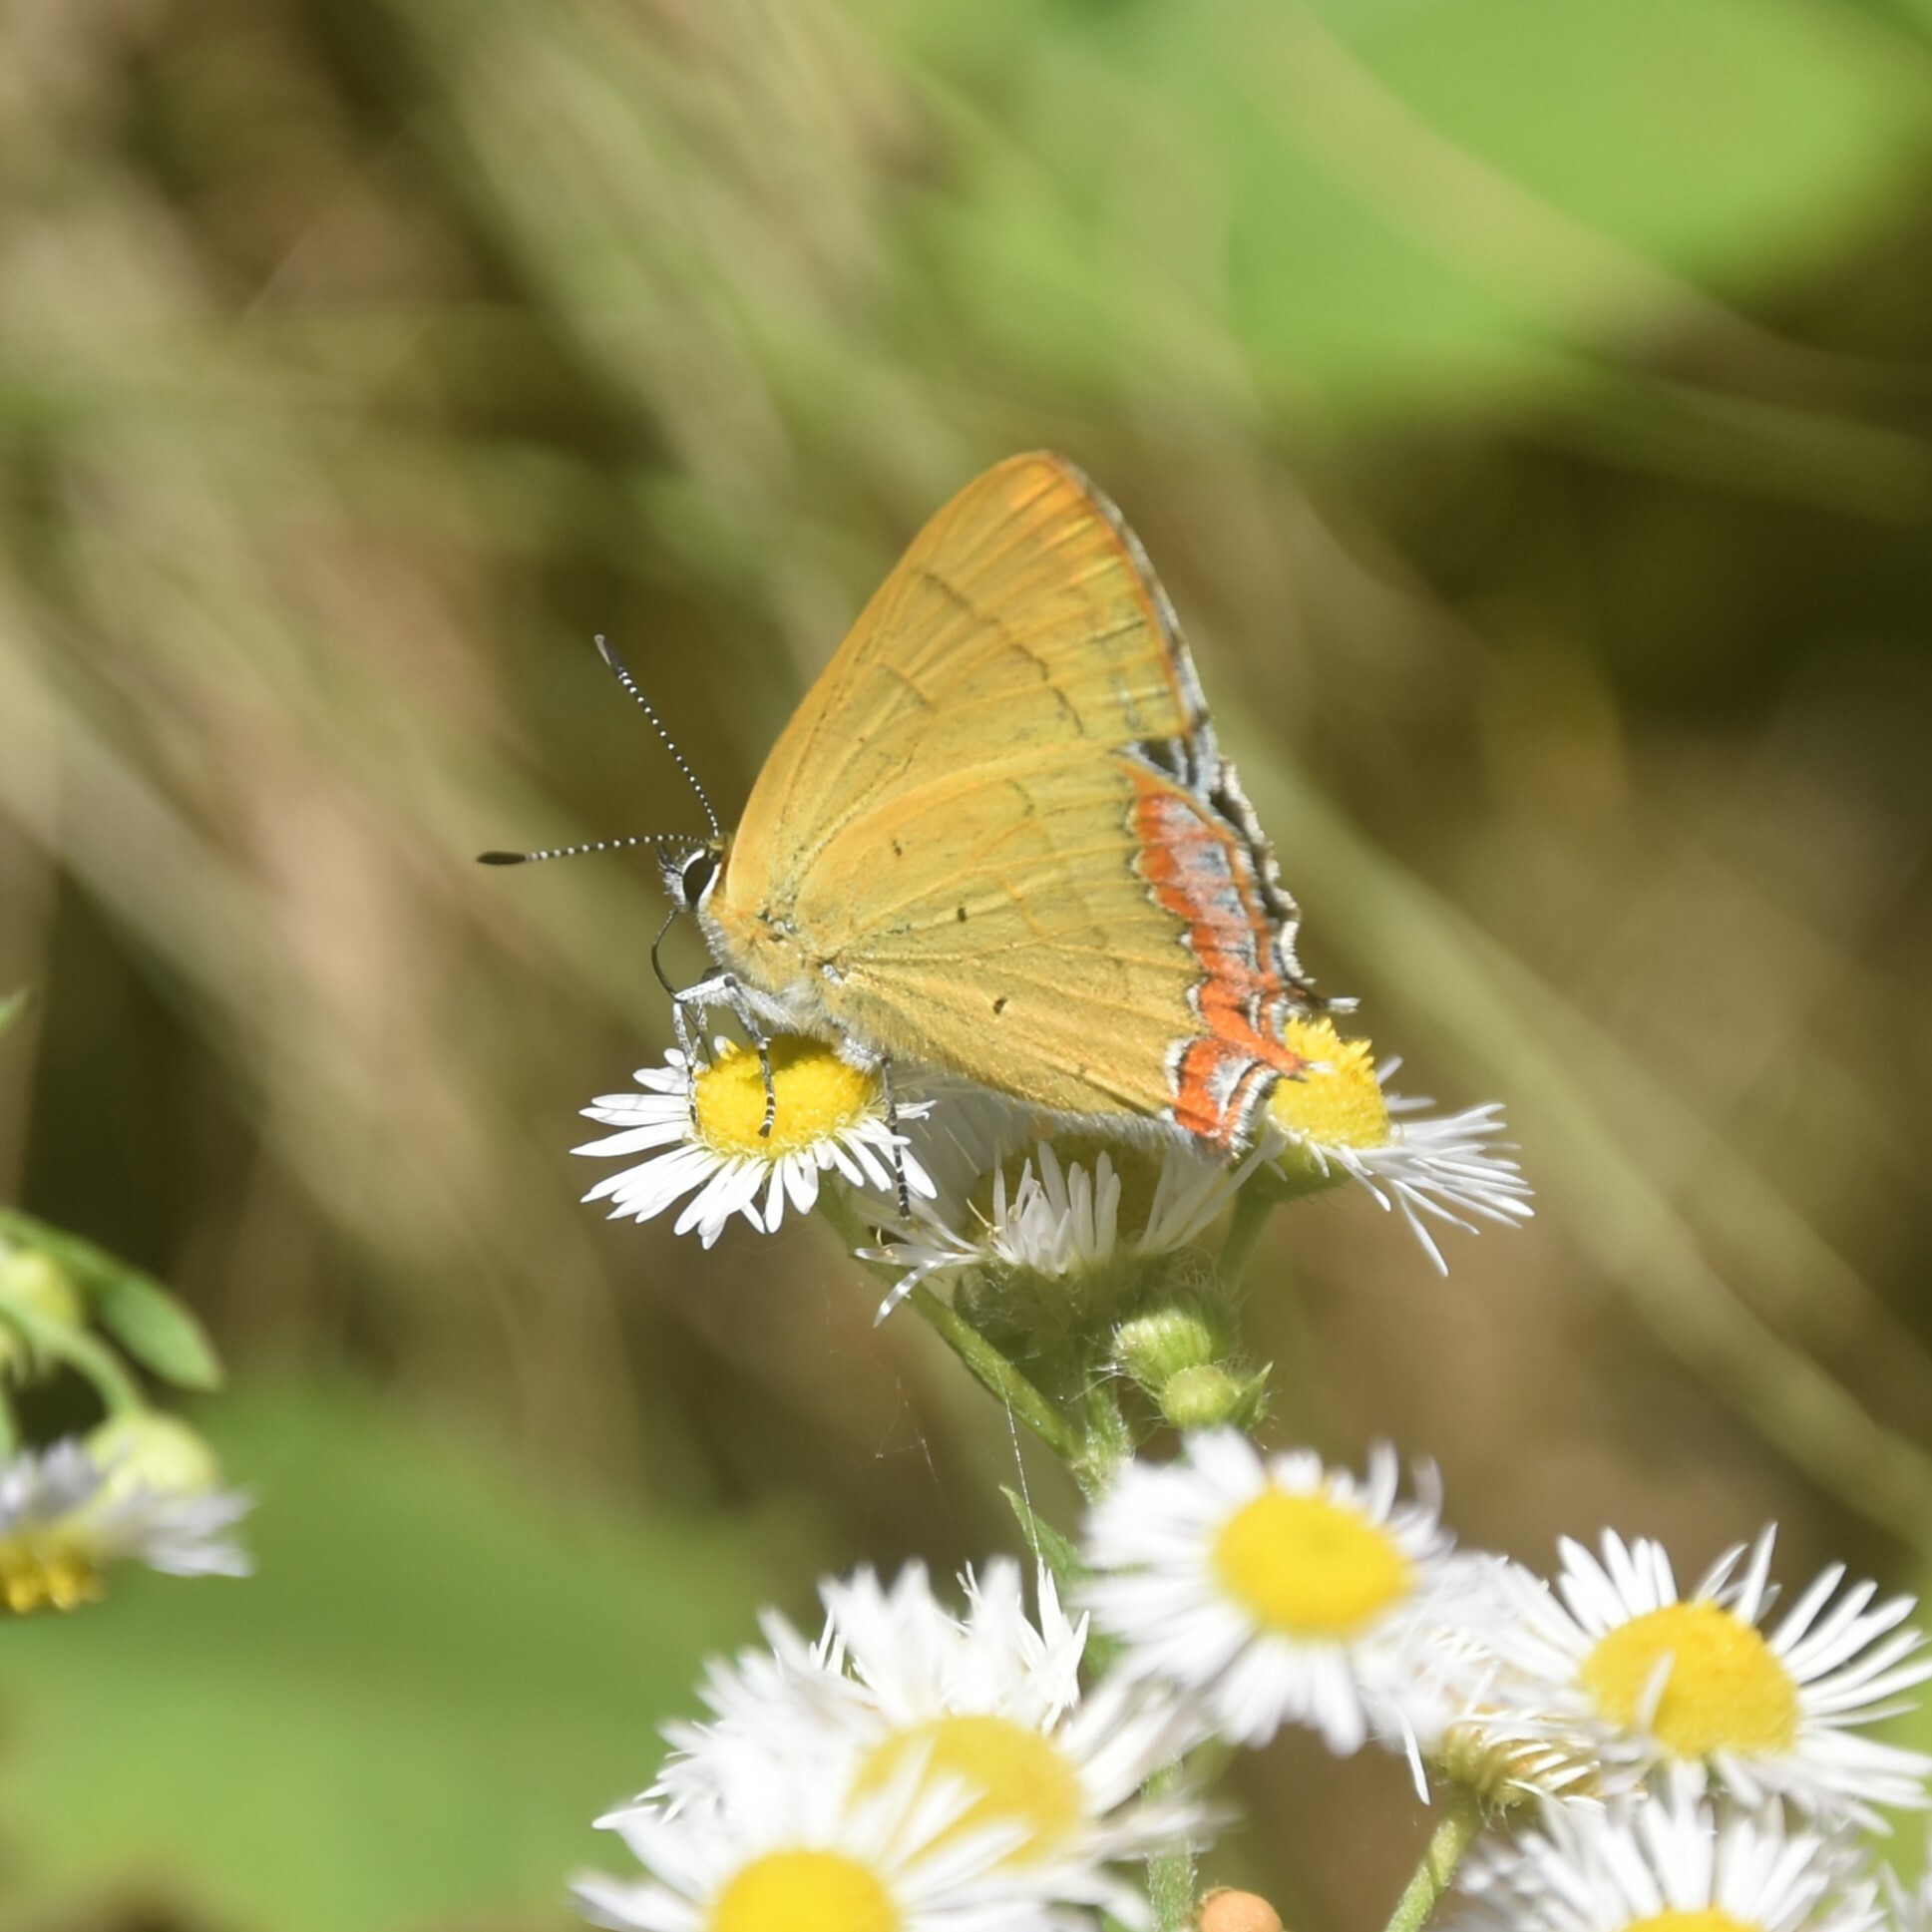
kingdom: Animalia
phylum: Arthropoda
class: Insecta
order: Lepidoptera
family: Lycaenidae
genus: Heliophorus
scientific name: Heliophorus
